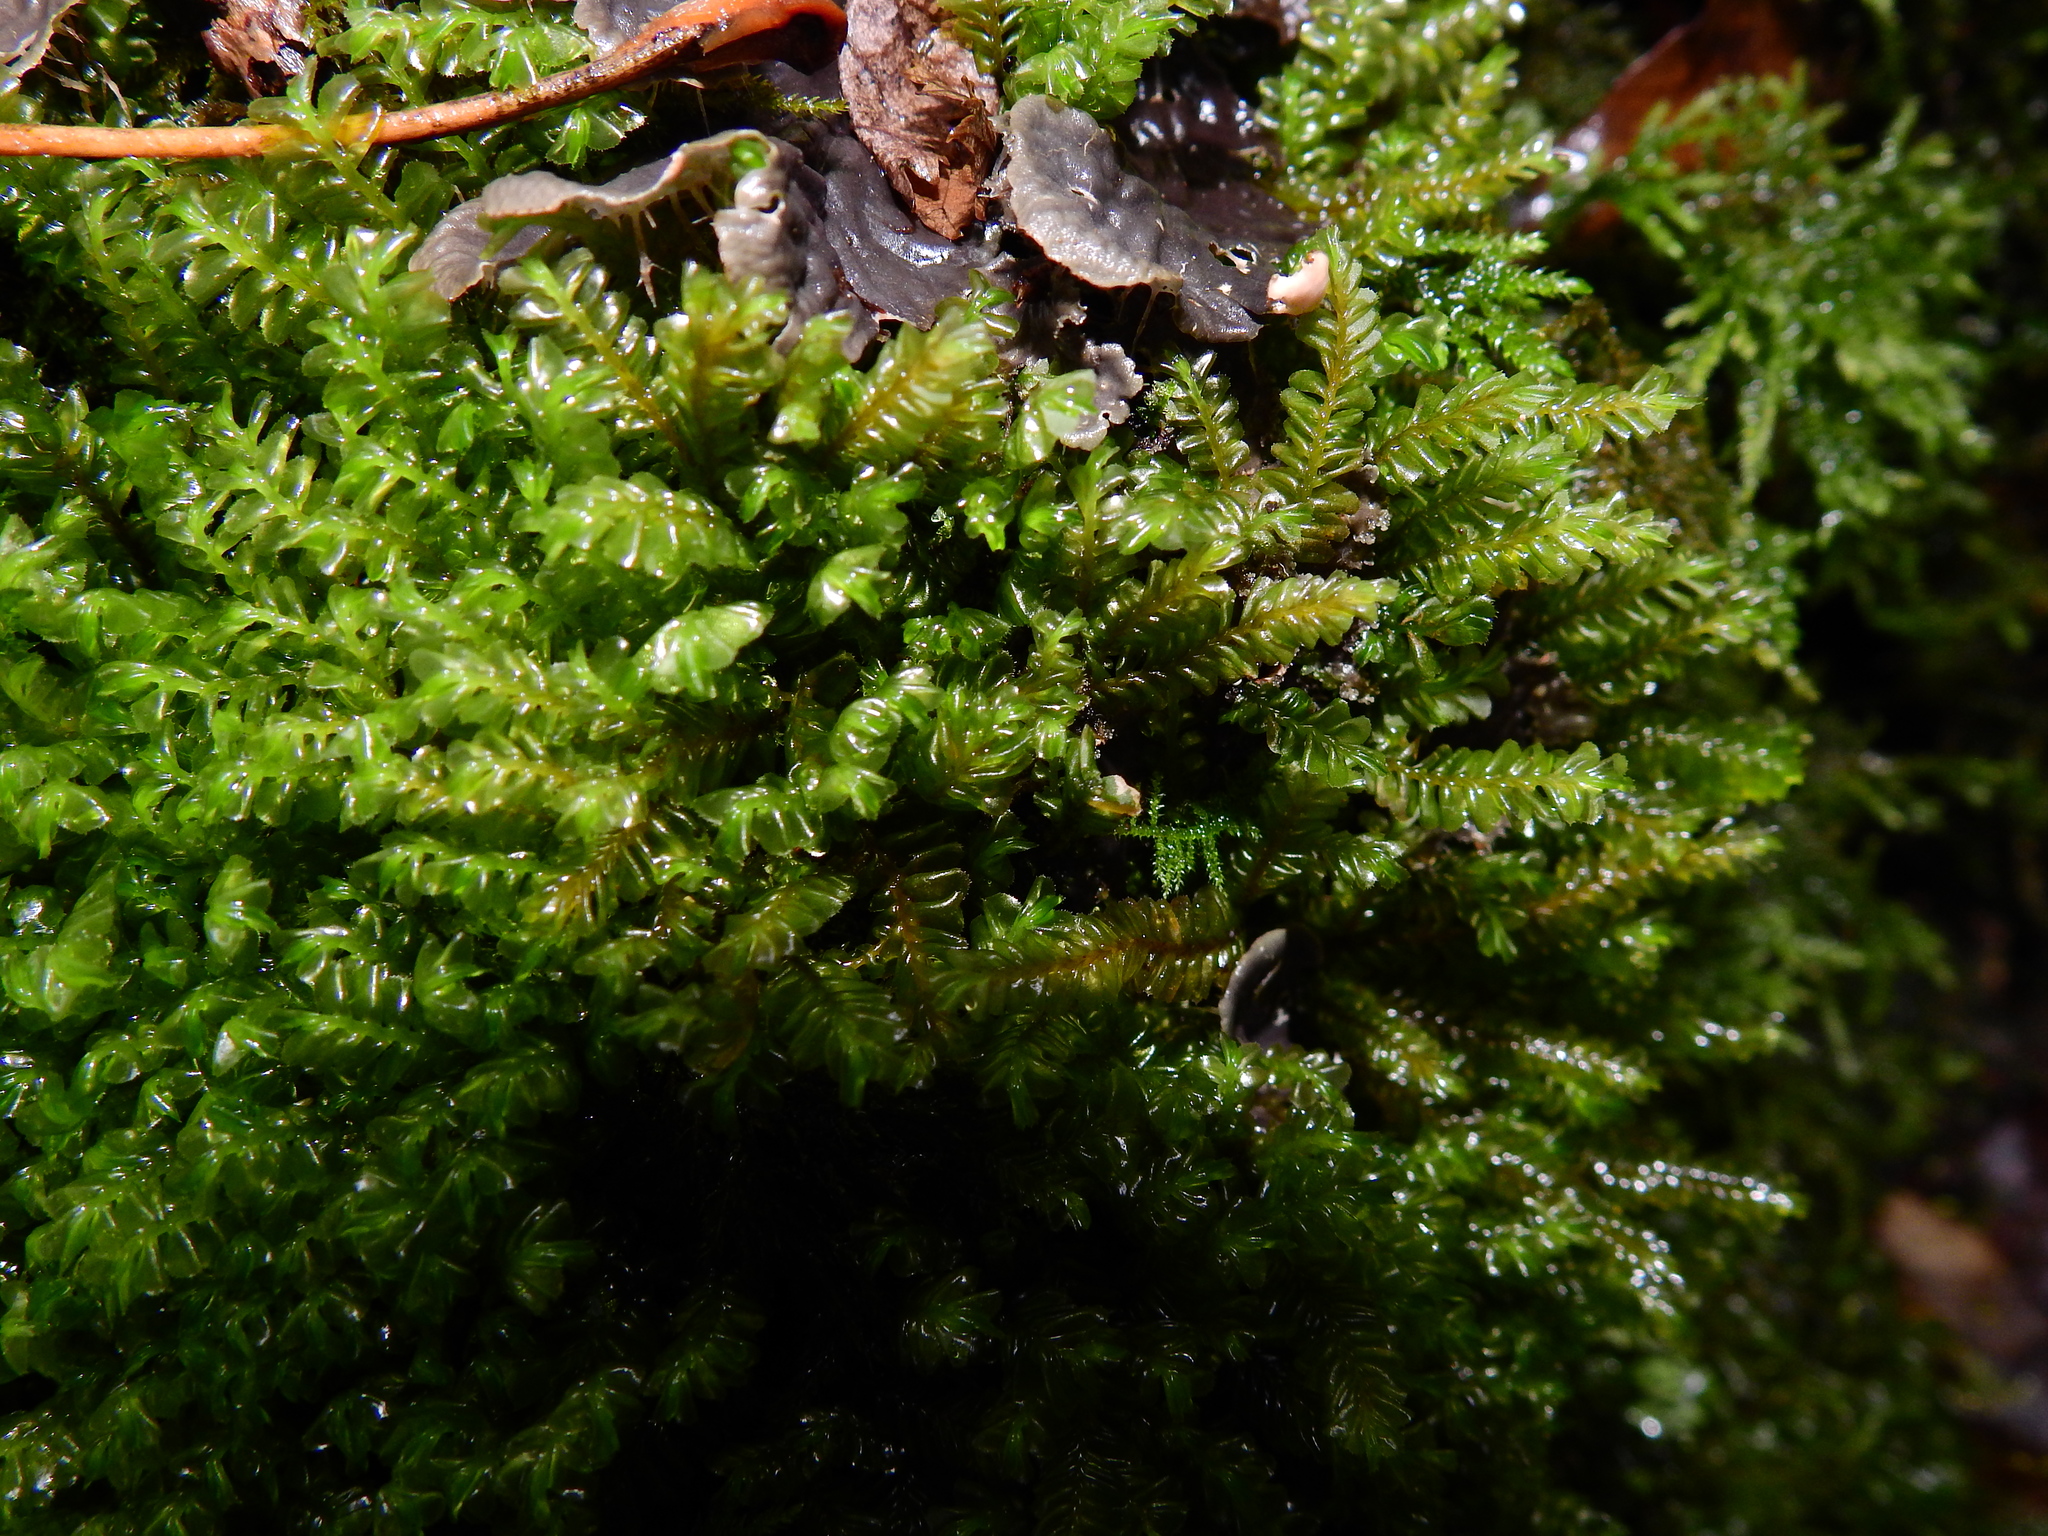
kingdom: Plantae
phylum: Marchantiophyta
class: Jungermanniopsida
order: Jungermanniales
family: Plagiochilaceae
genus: Plagiochila
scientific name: Plagiochila porelloides
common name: Lesser featherwort
